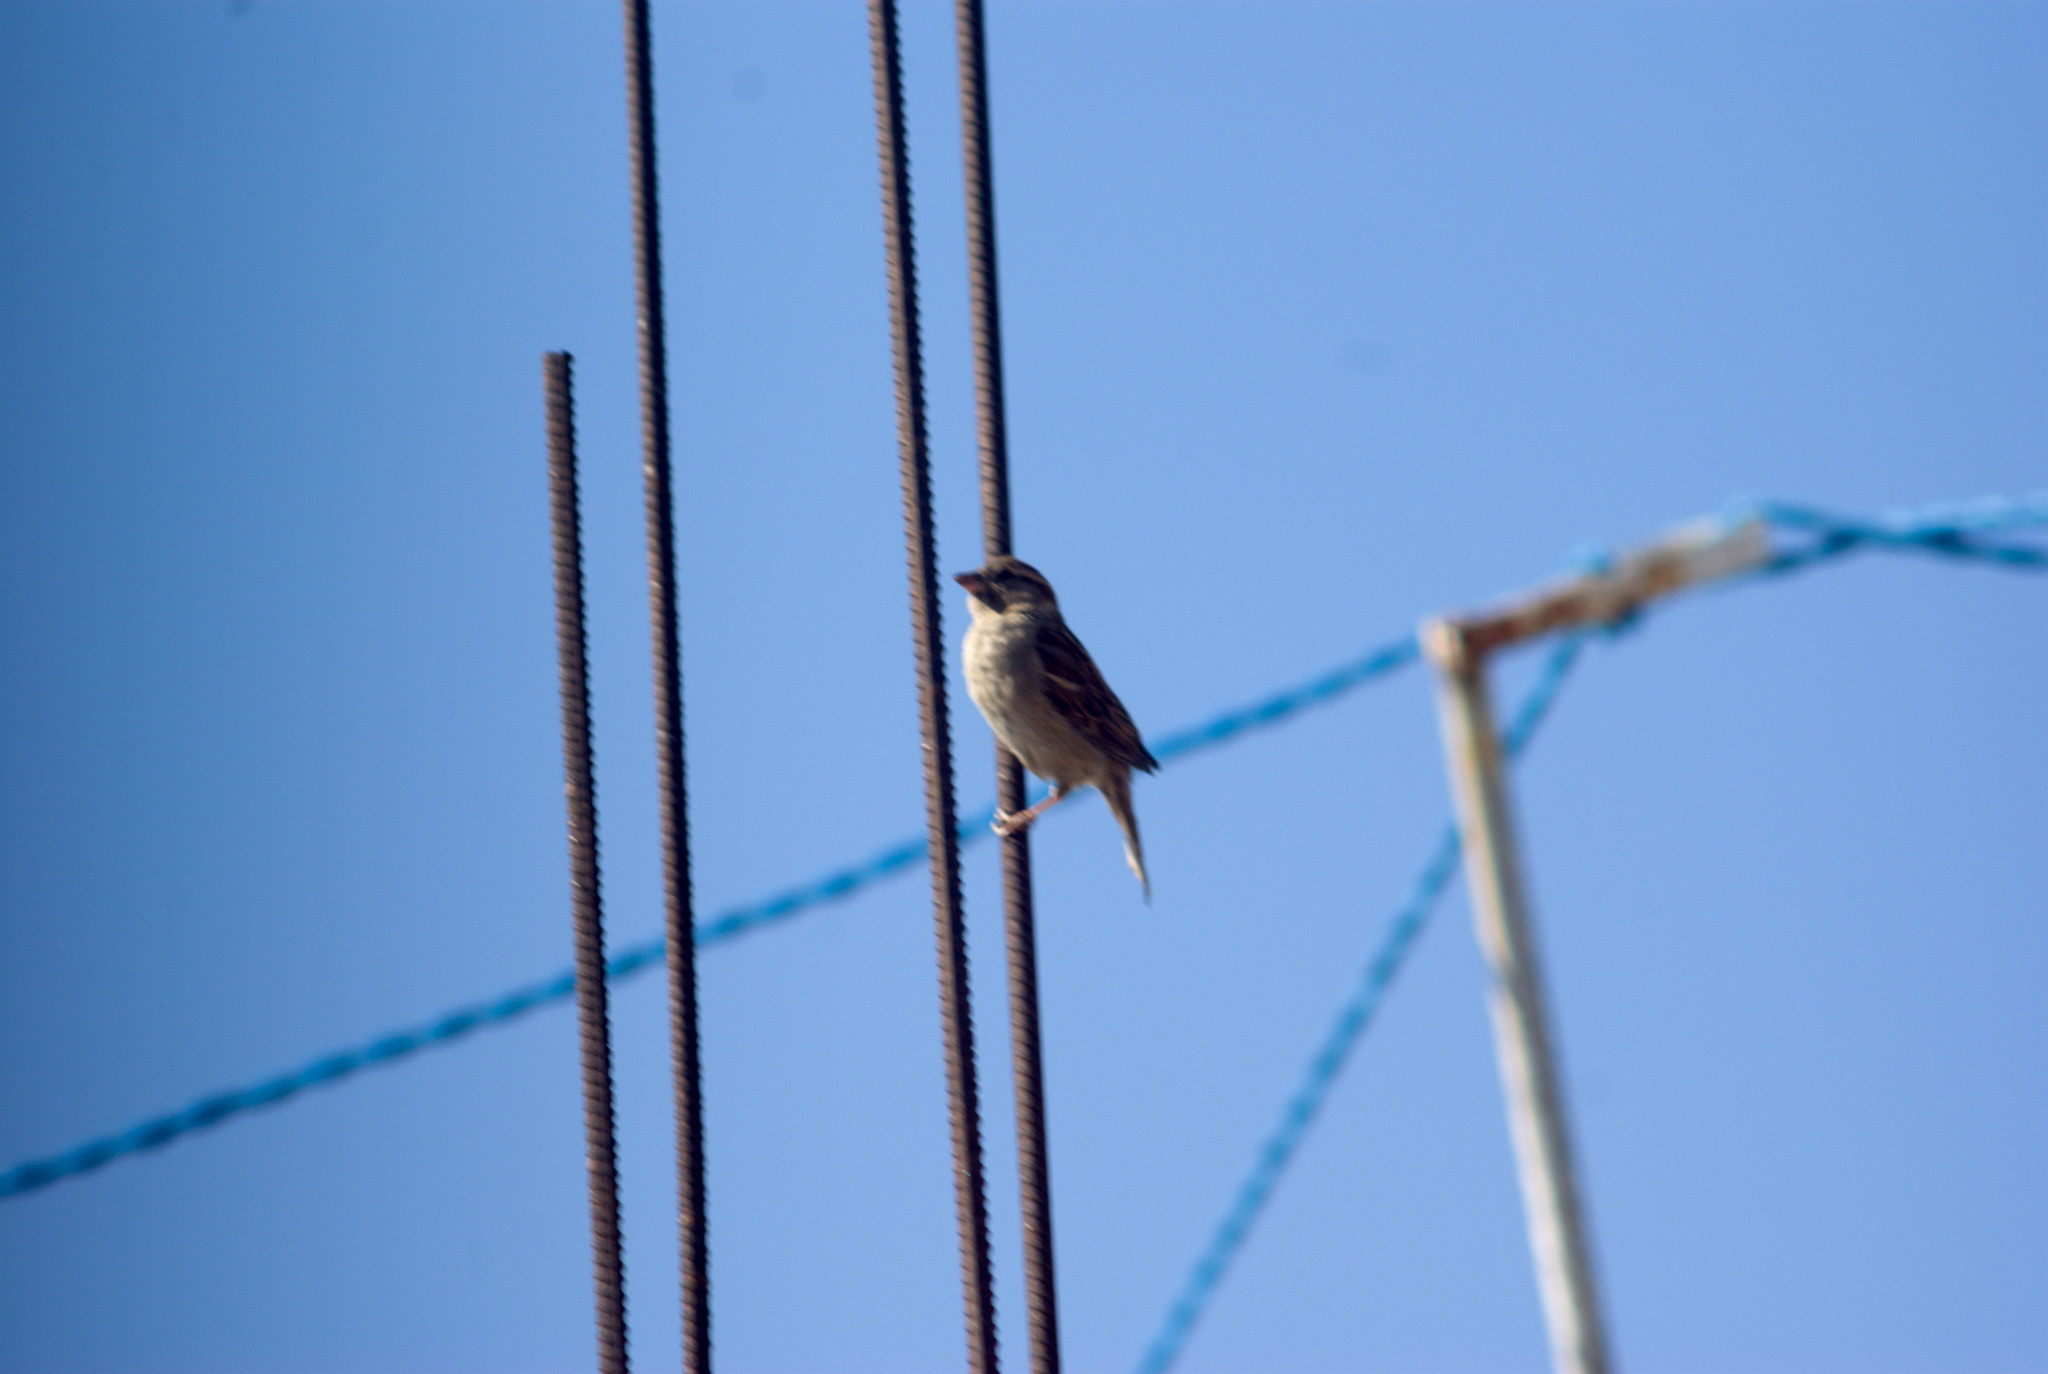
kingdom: Animalia
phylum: Chordata
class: Aves
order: Passeriformes
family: Passeridae
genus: Passer
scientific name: Passer domesticus
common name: House sparrow
